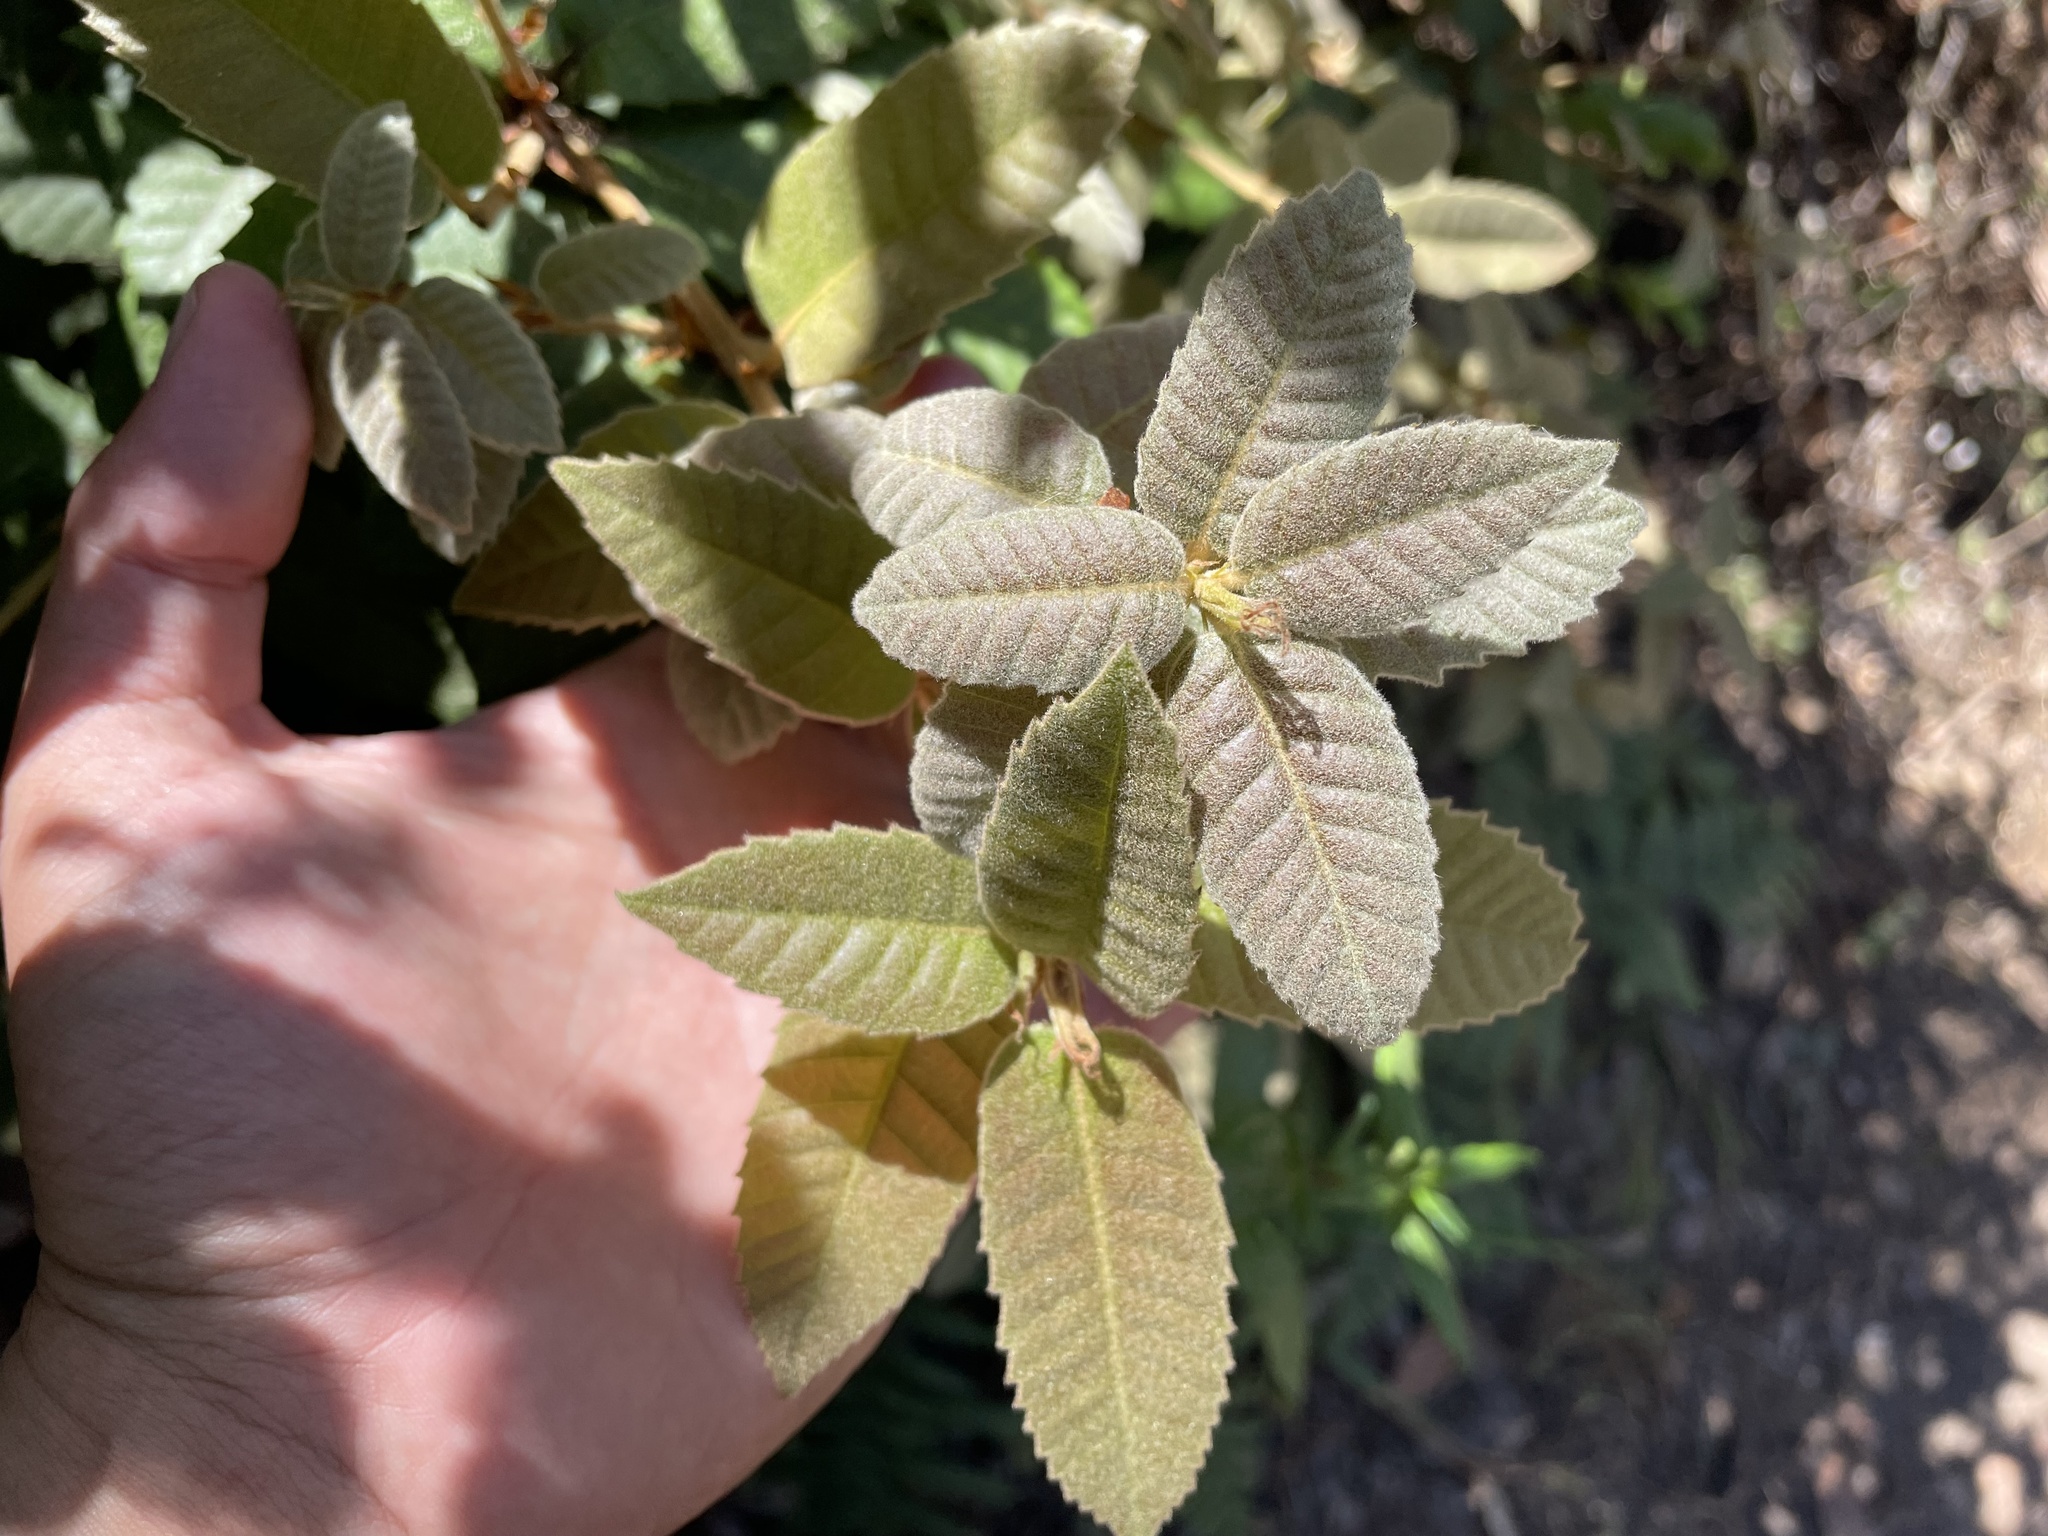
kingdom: Plantae
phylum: Tracheophyta
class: Magnoliopsida
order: Fagales
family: Fagaceae
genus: Notholithocarpus
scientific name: Notholithocarpus densiflorus
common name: Tan bark oak
